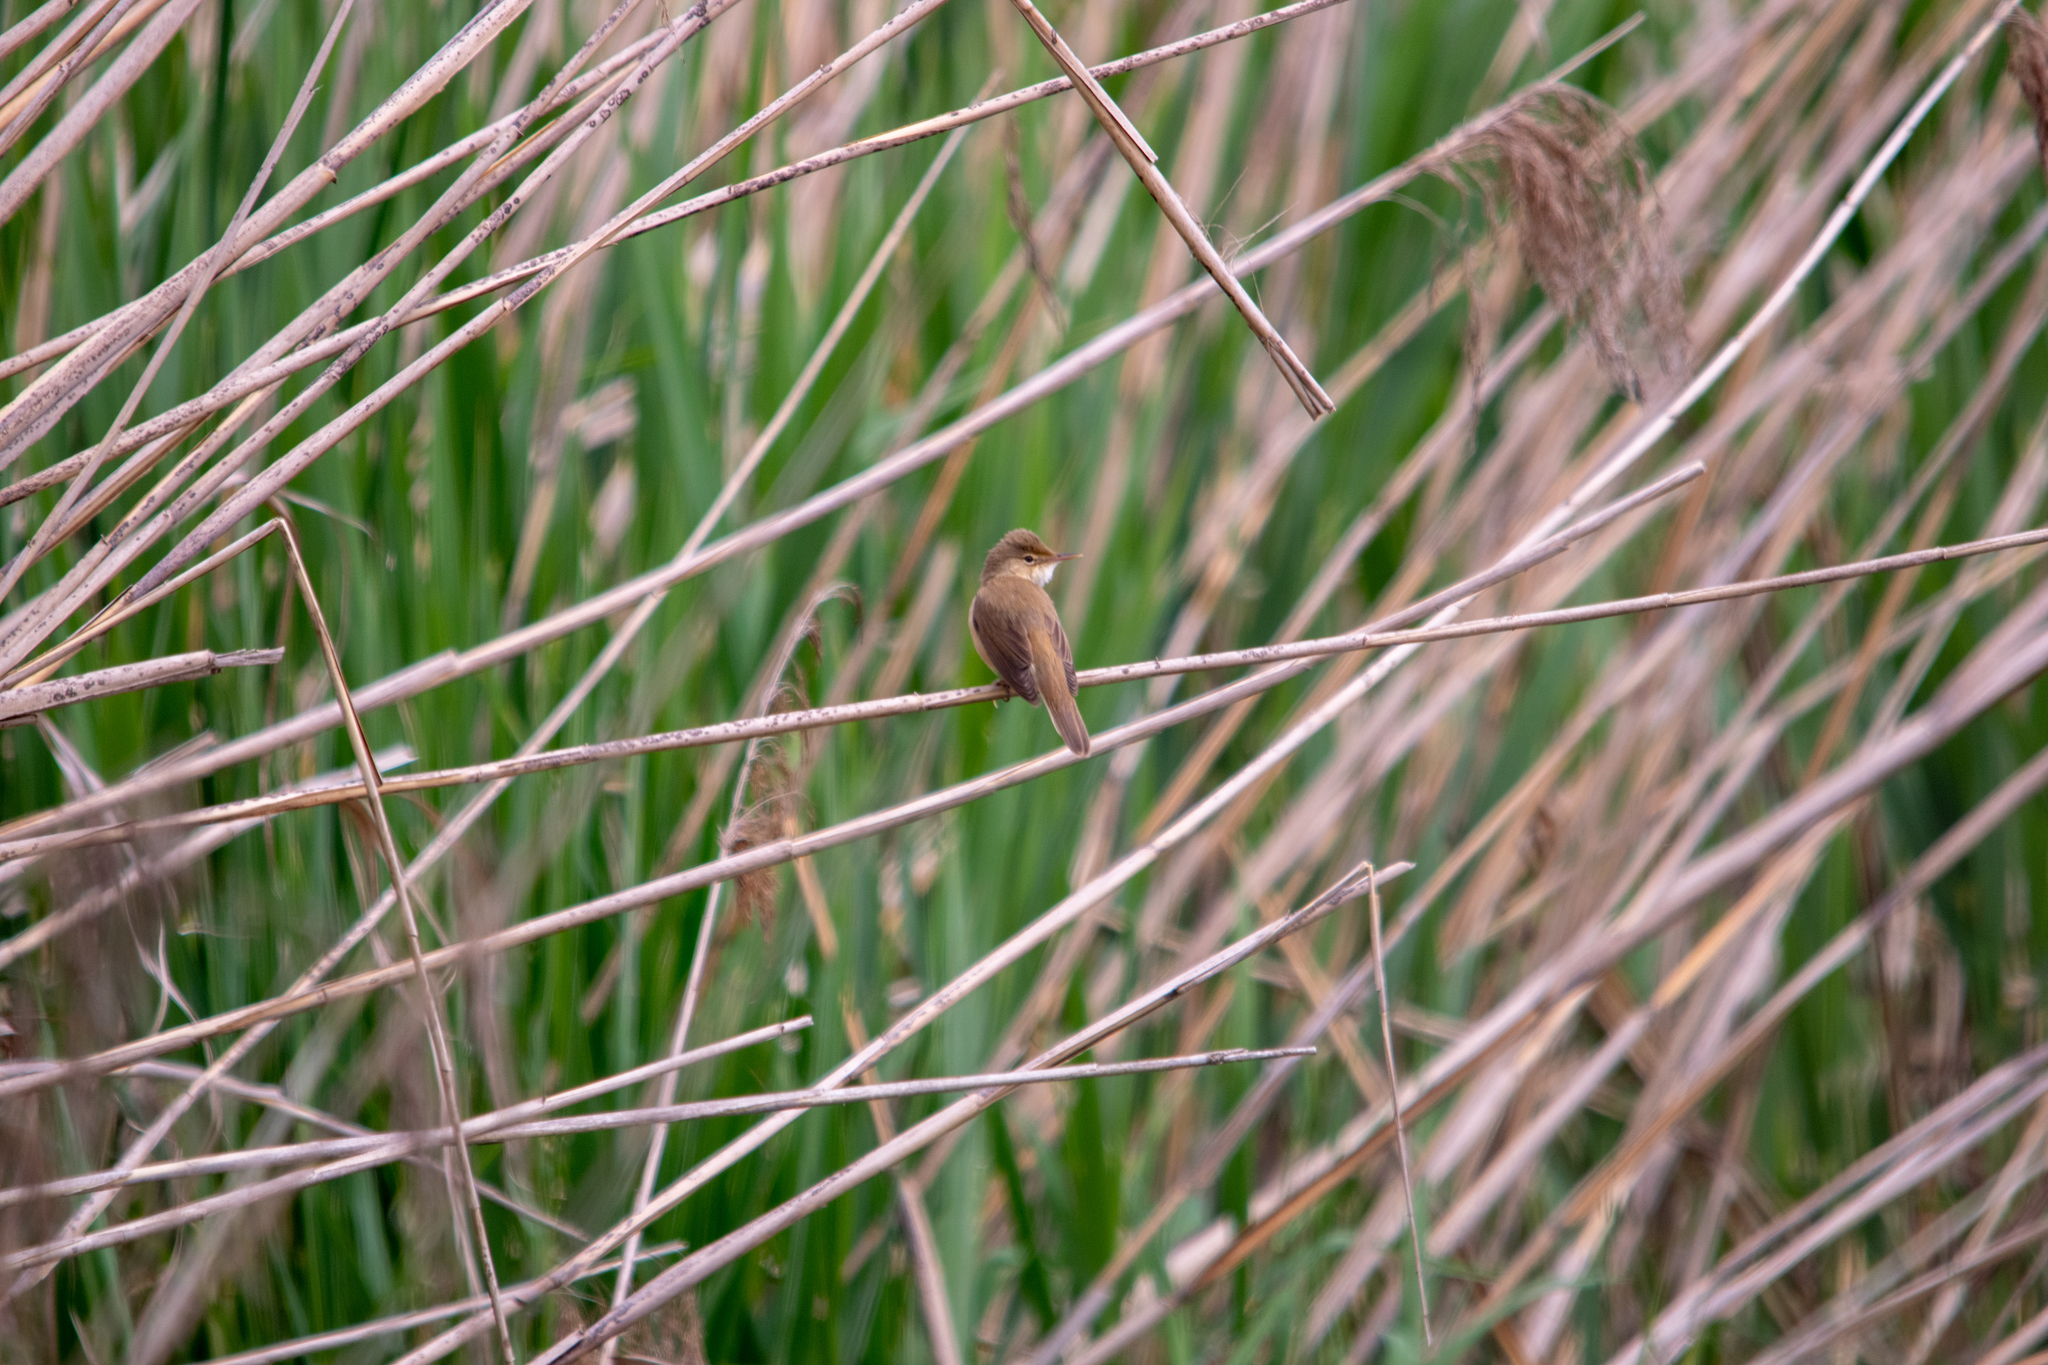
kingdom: Animalia
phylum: Chordata
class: Aves
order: Passeriformes
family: Acrocephalidae
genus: Acrocephalus
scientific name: Acrocephalus scirpaceus
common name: Eurasian reed warbler
